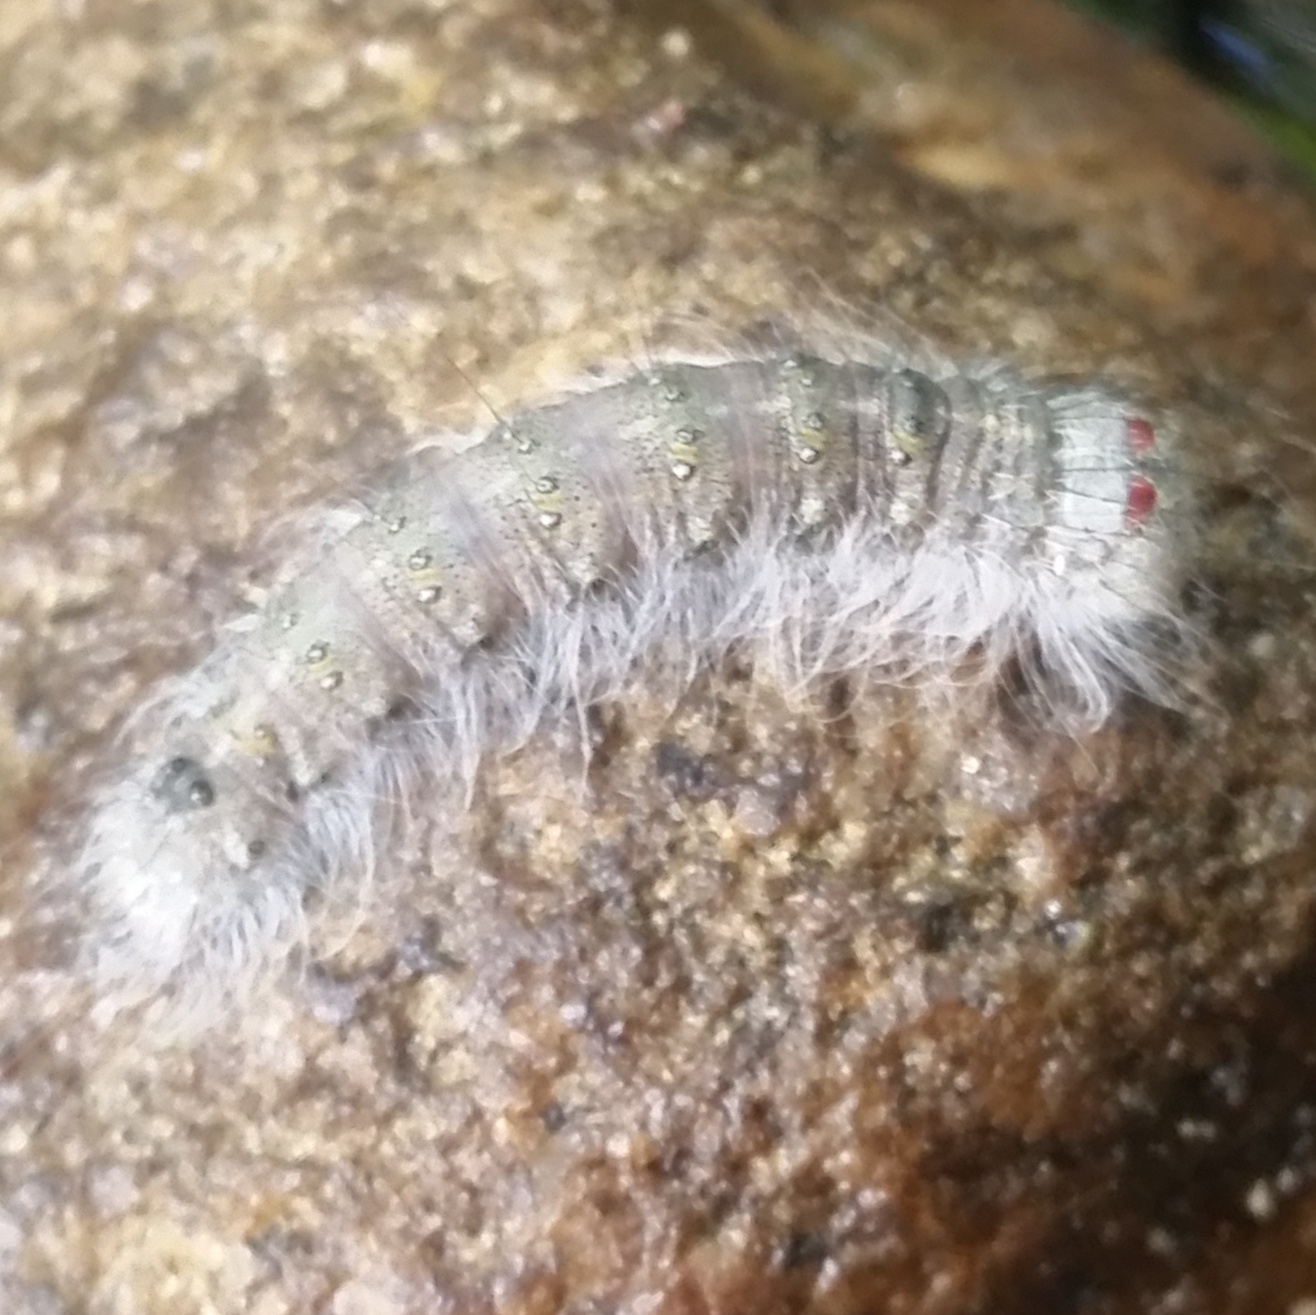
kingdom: Animalia
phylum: Arthropoda
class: Insecta
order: Lepidoptera
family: Noctuidae
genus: Acronicta
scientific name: Acronicta lobeliae
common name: Greater oak dagger
